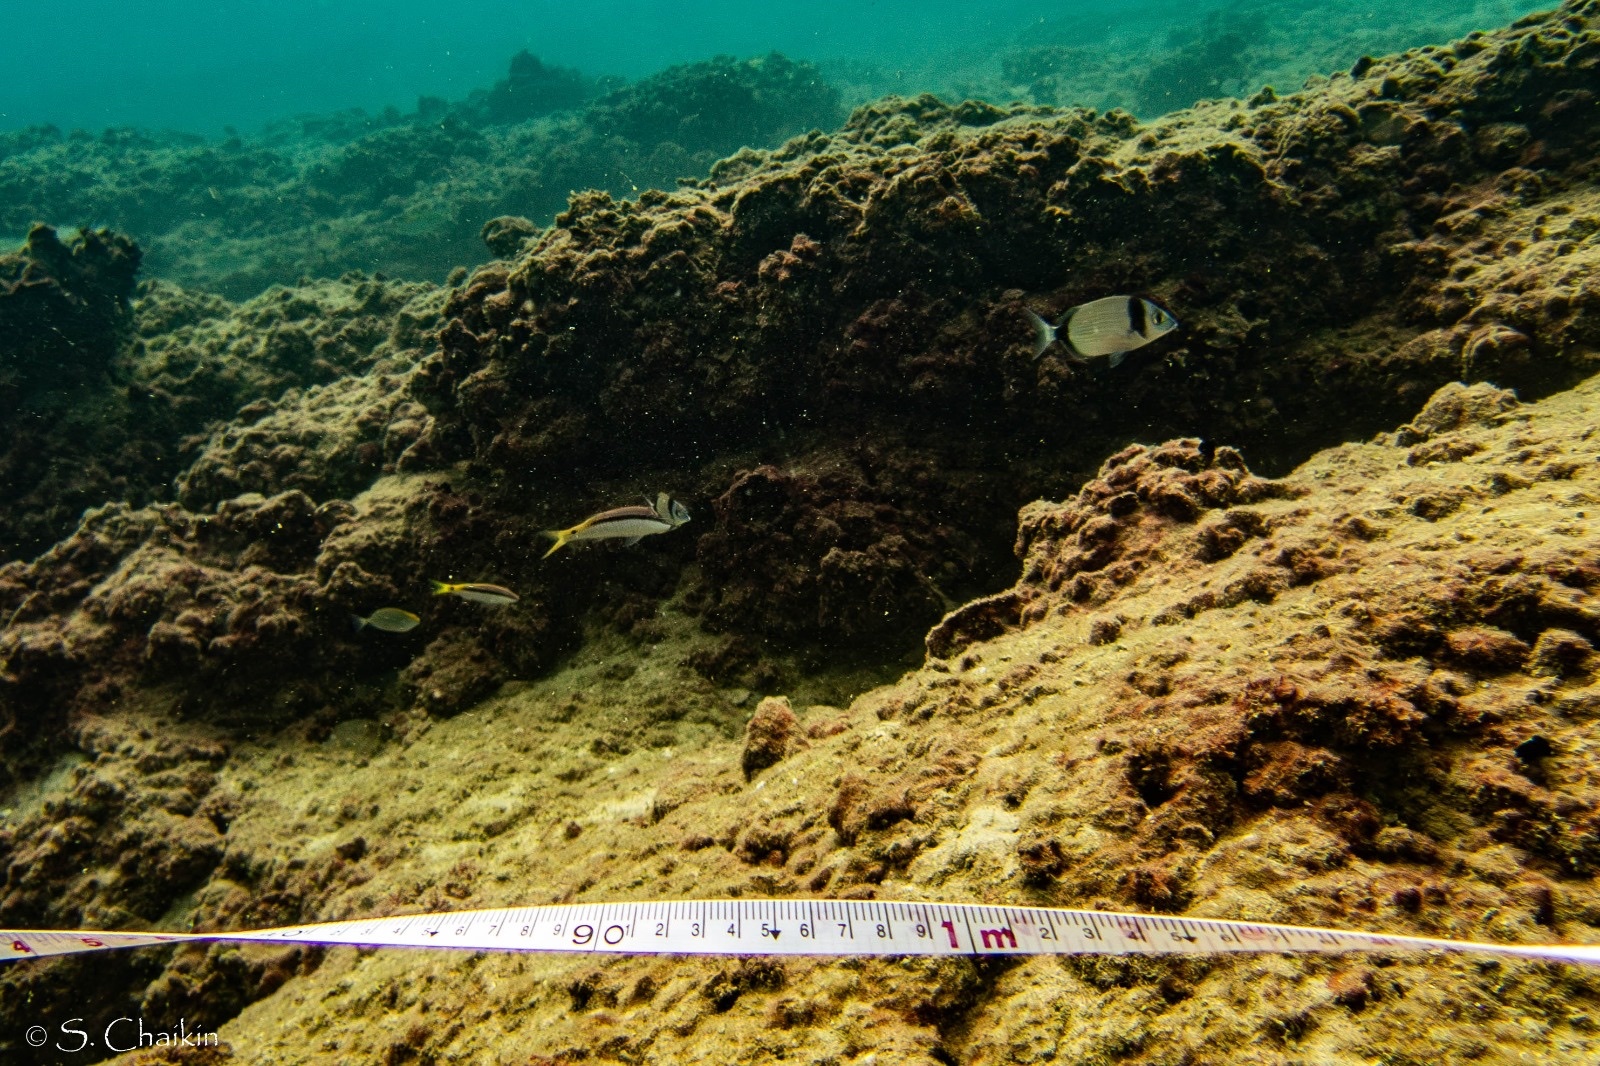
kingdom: Animalia
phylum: Chordata
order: Perciformes
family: Sparidae
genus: Diplodus
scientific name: Diplodus vulgaris
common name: Common two-banded seabream
